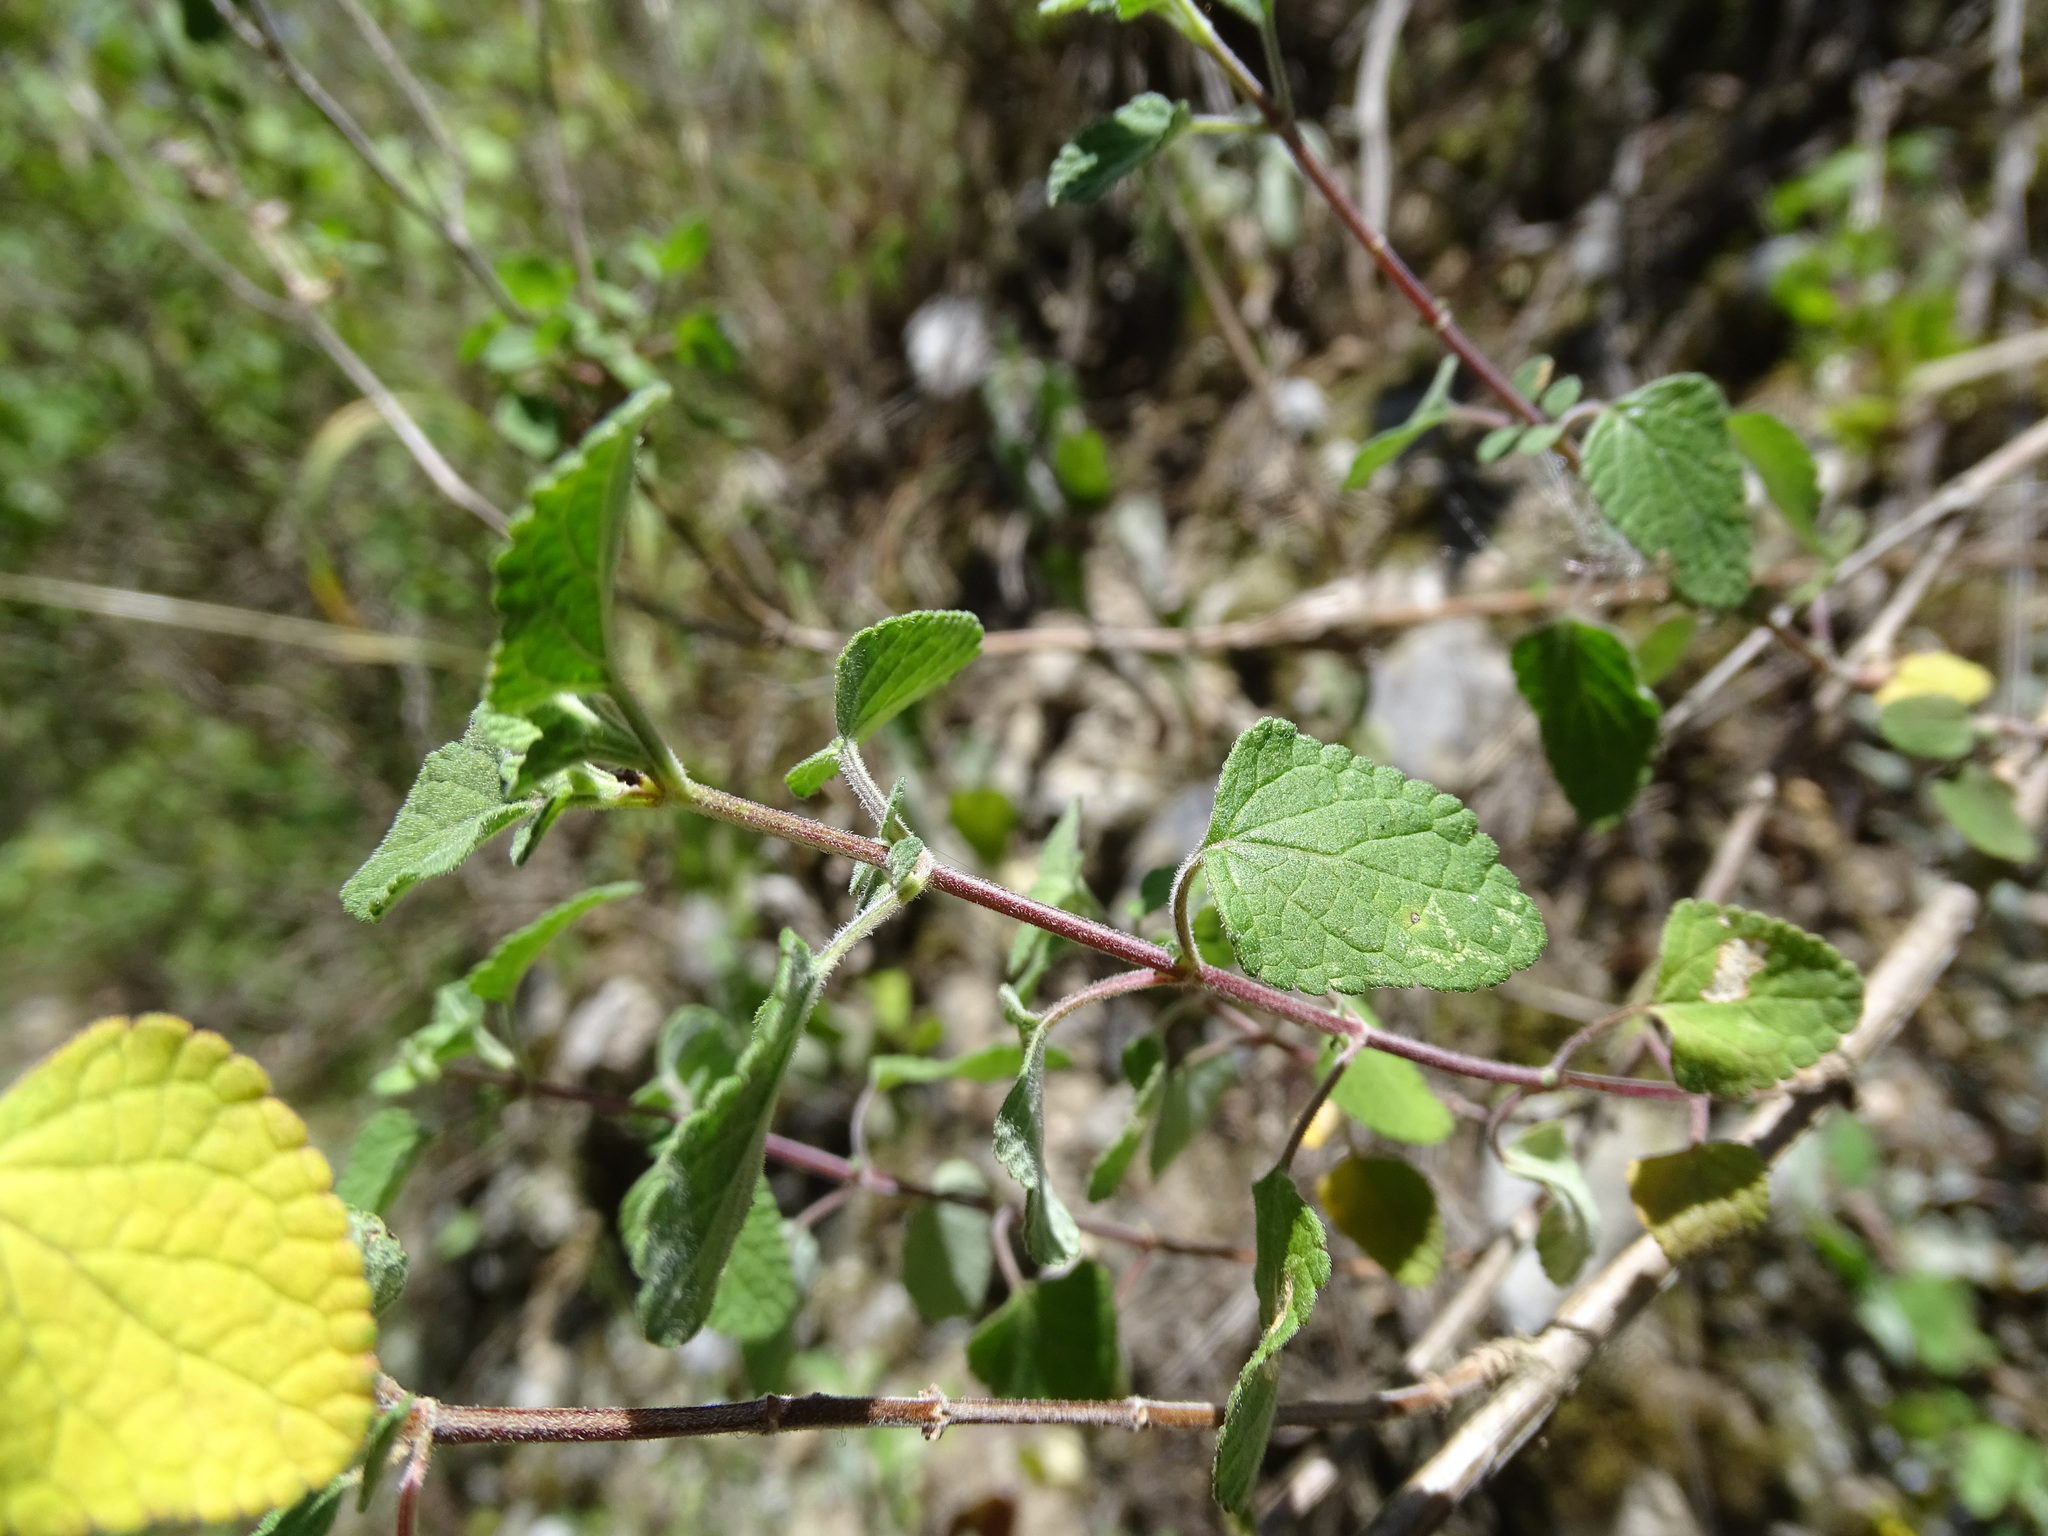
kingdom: Plantae
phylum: Tracheophyta
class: Magnoliopsida
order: Lamiales
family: Lamiaceae
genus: Salvia
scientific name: Salvia microphylla
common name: Baby sage
